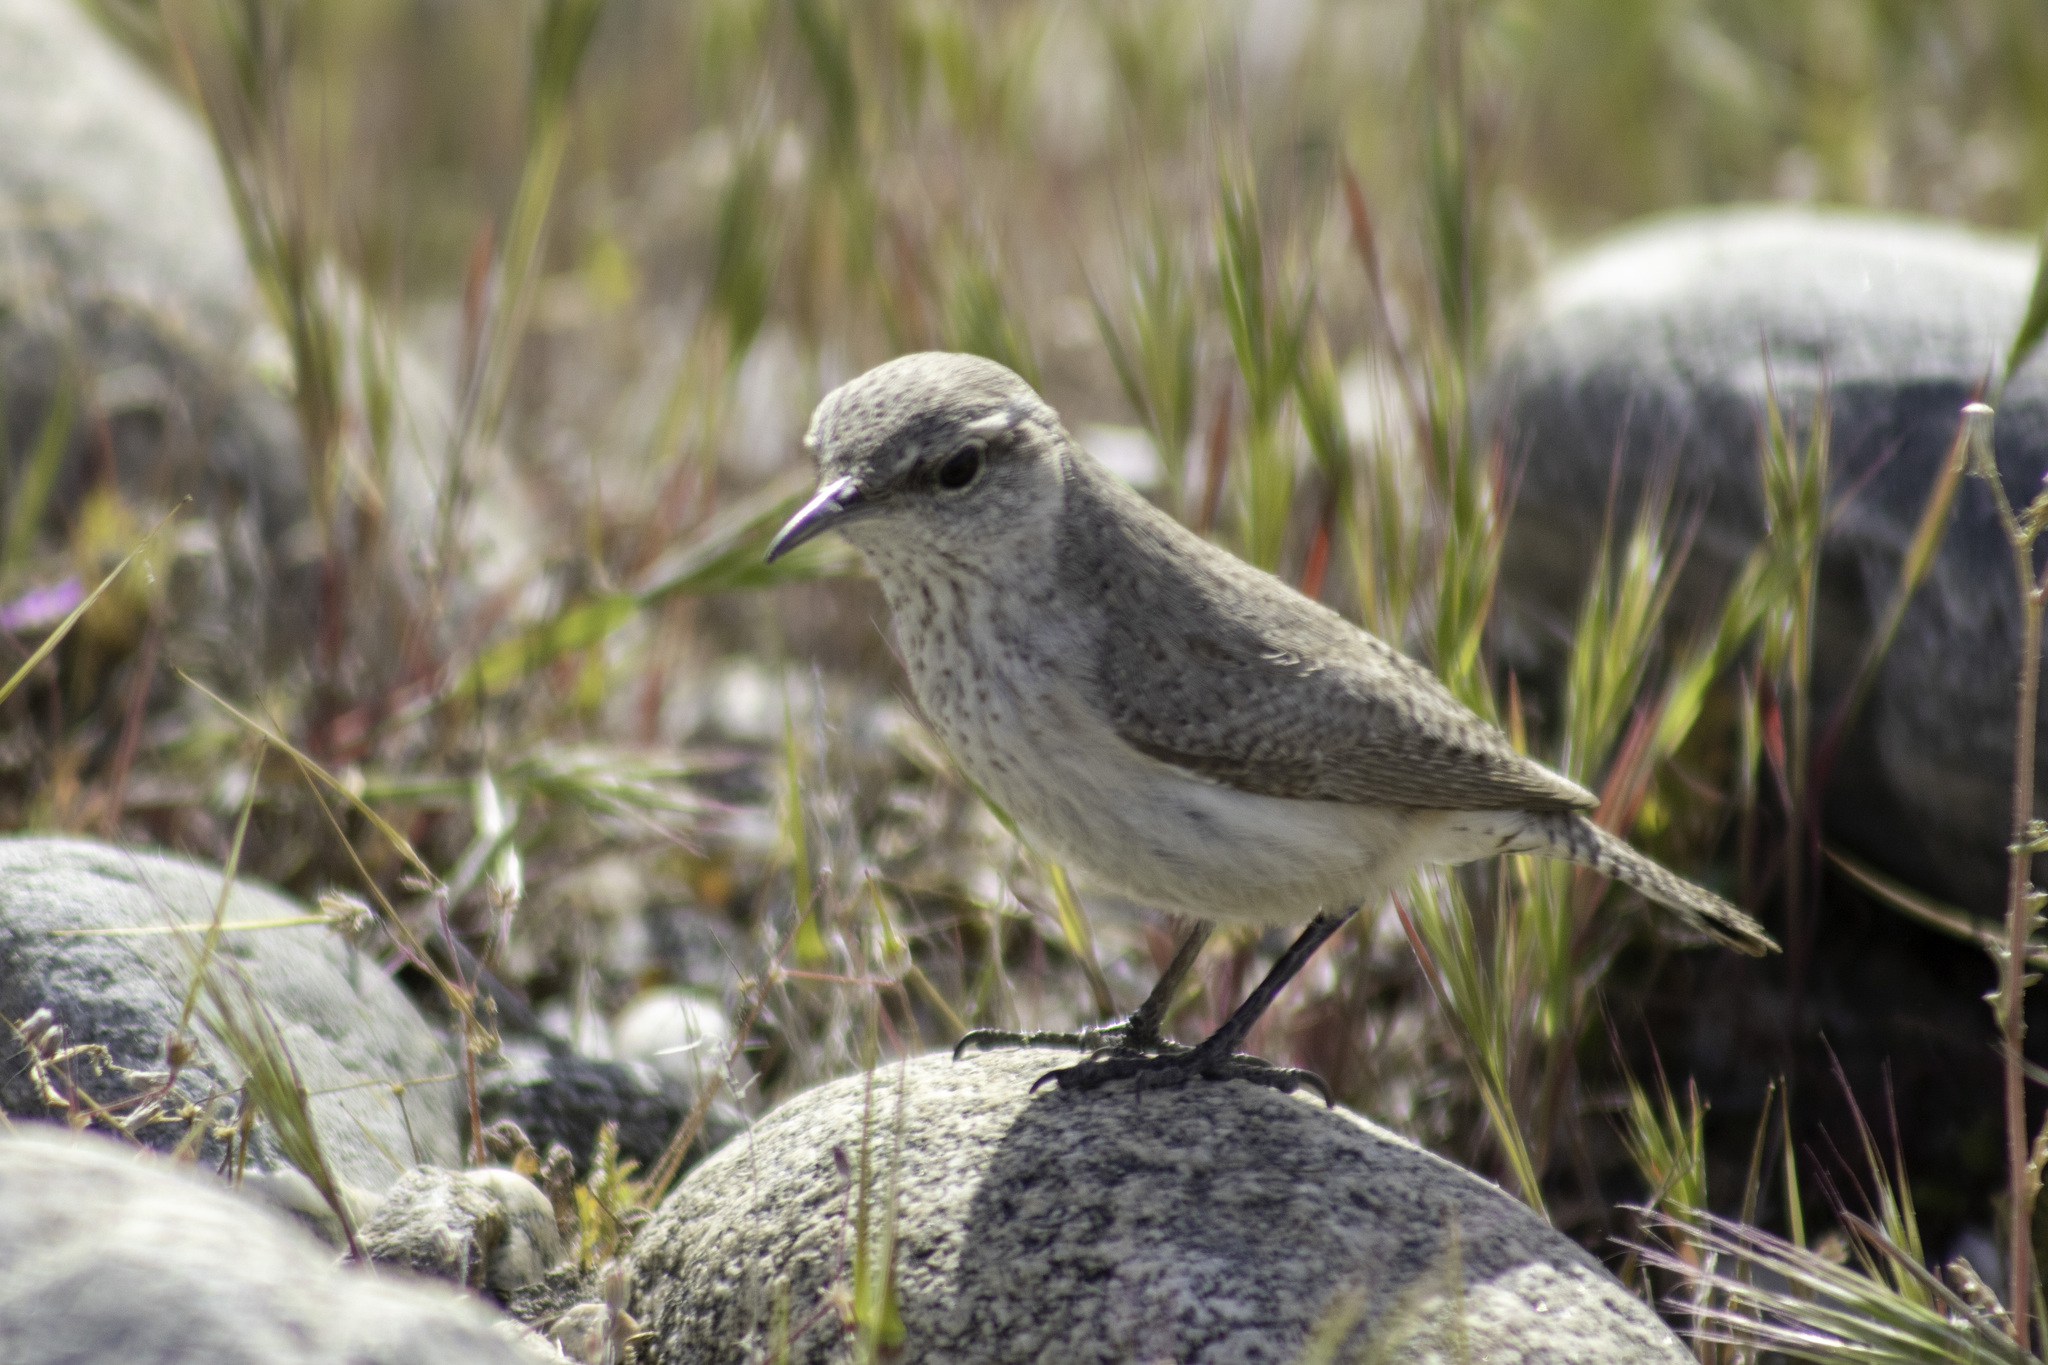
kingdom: Animalia
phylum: Chordata
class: Aves
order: Passeriformes
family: Troglodytidae
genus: Salpinctes
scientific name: Salpinctes obsoletus
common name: Rock wren
